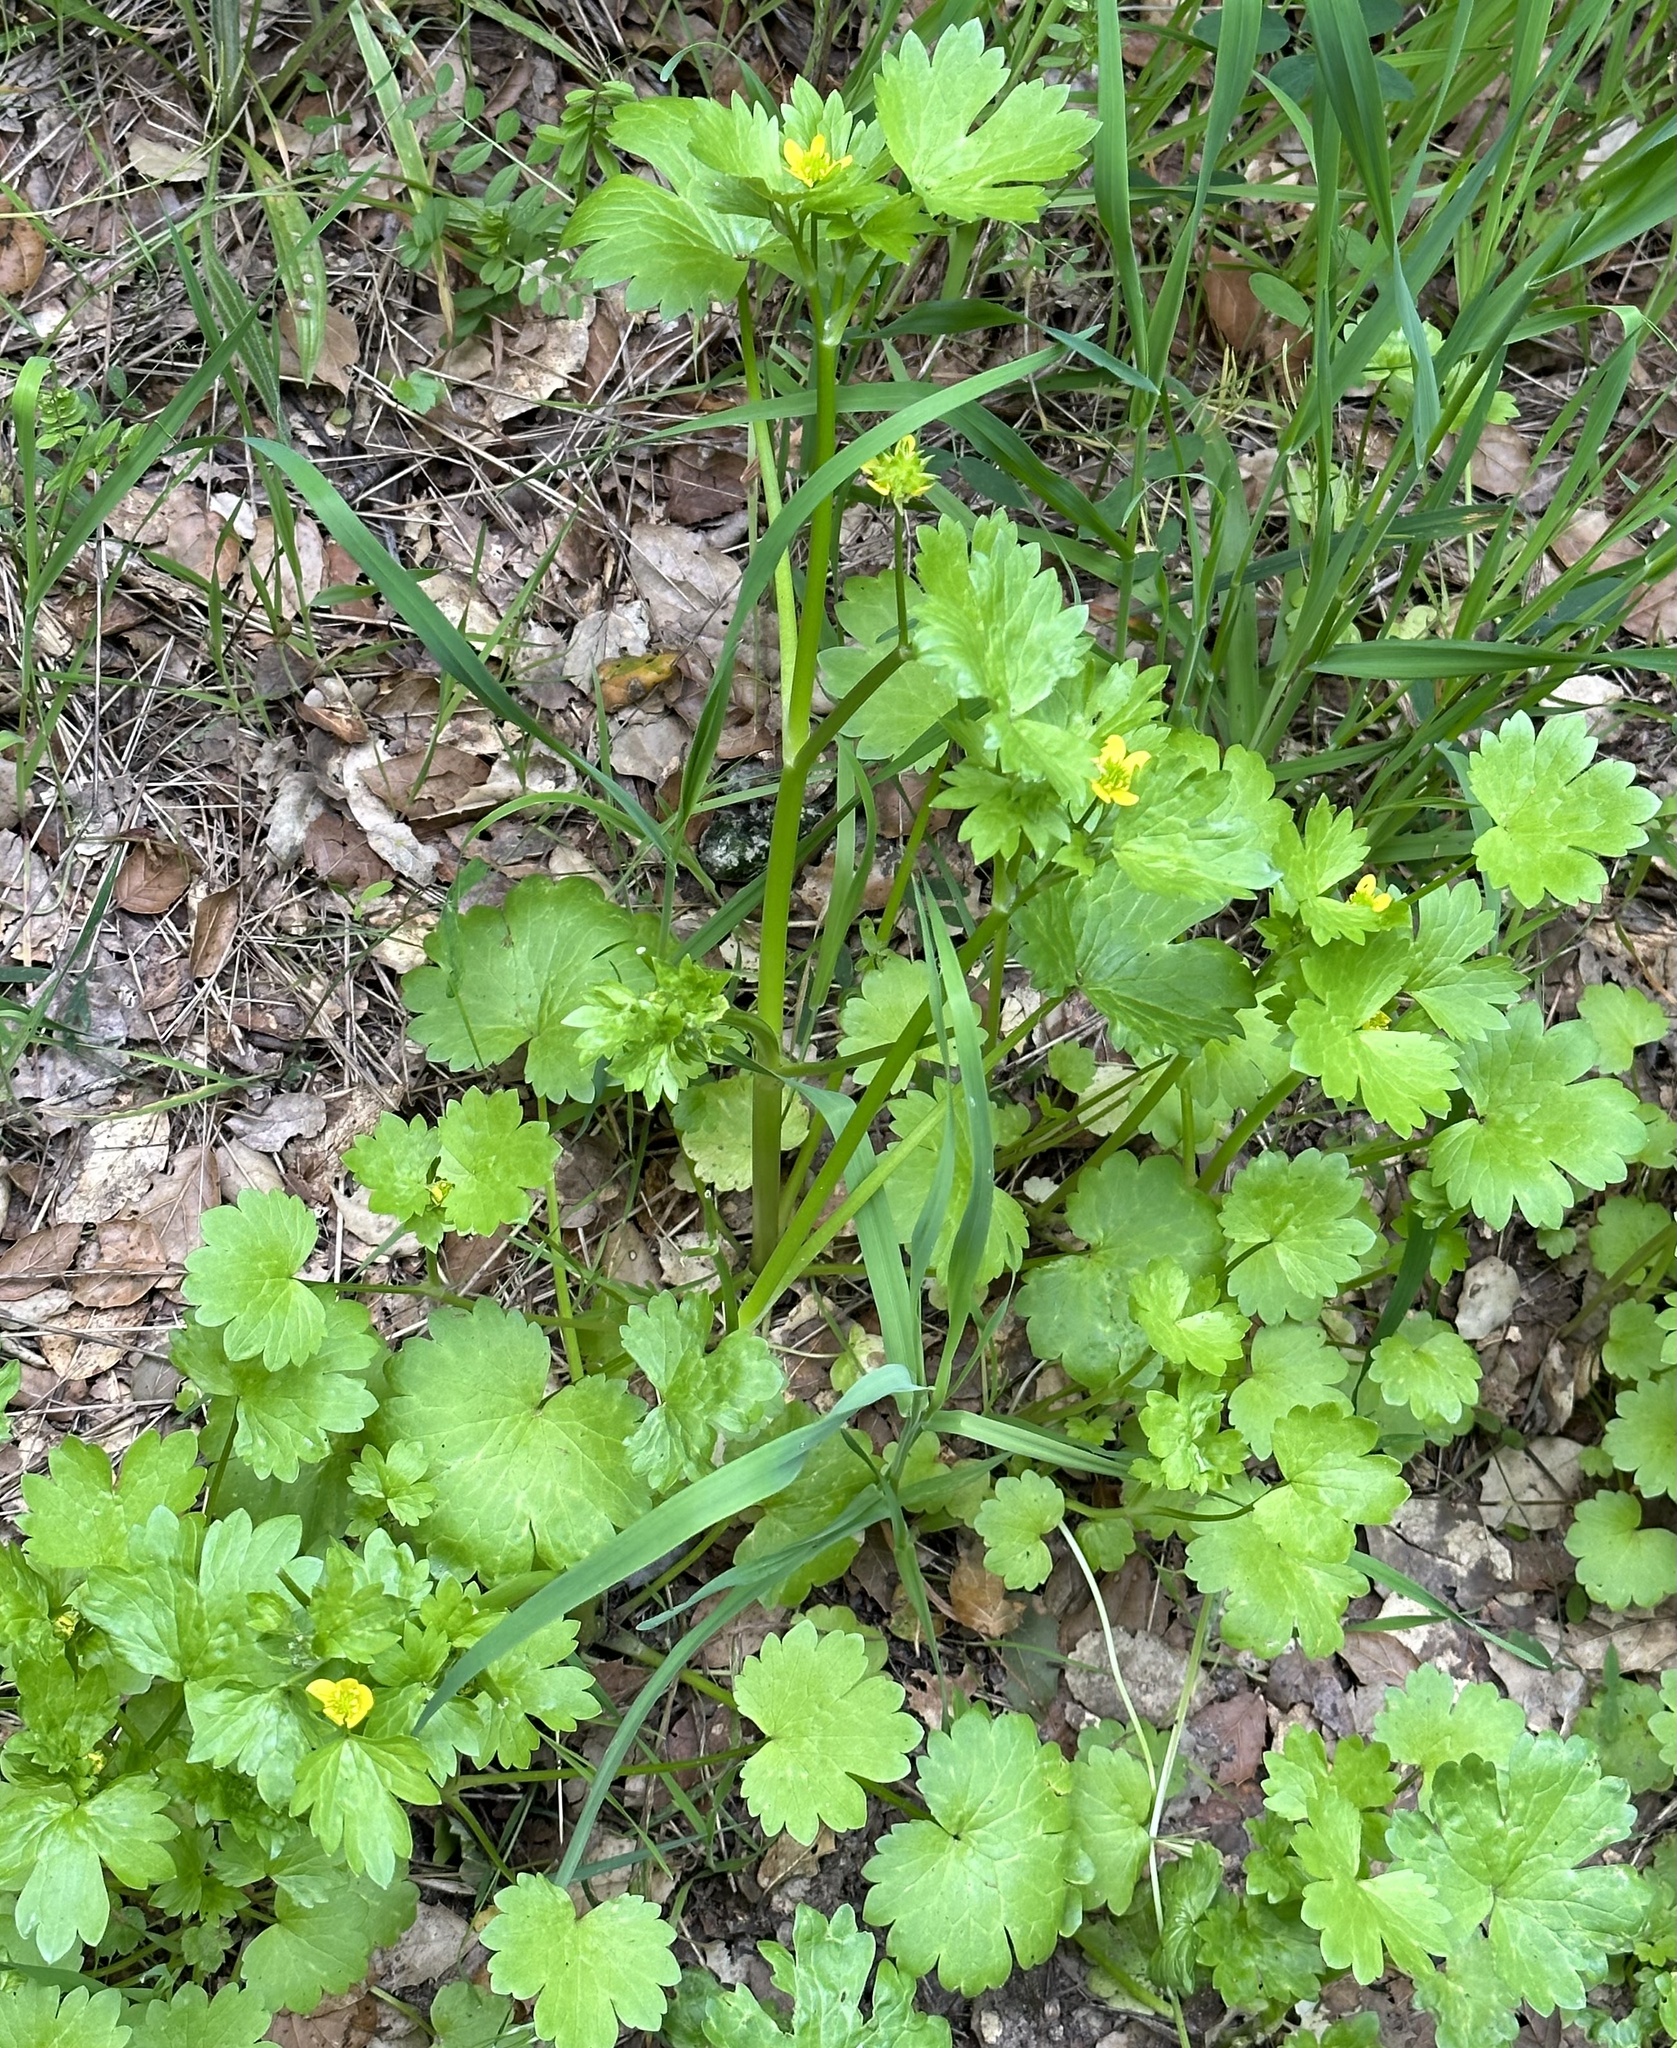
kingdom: Plantae
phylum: Tracheophyta
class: Magnoliopsida
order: Ranunculales
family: Ranunculaceae
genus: Ranunculus
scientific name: Ranunculus muricatus
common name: Rough-fruited buttercup
